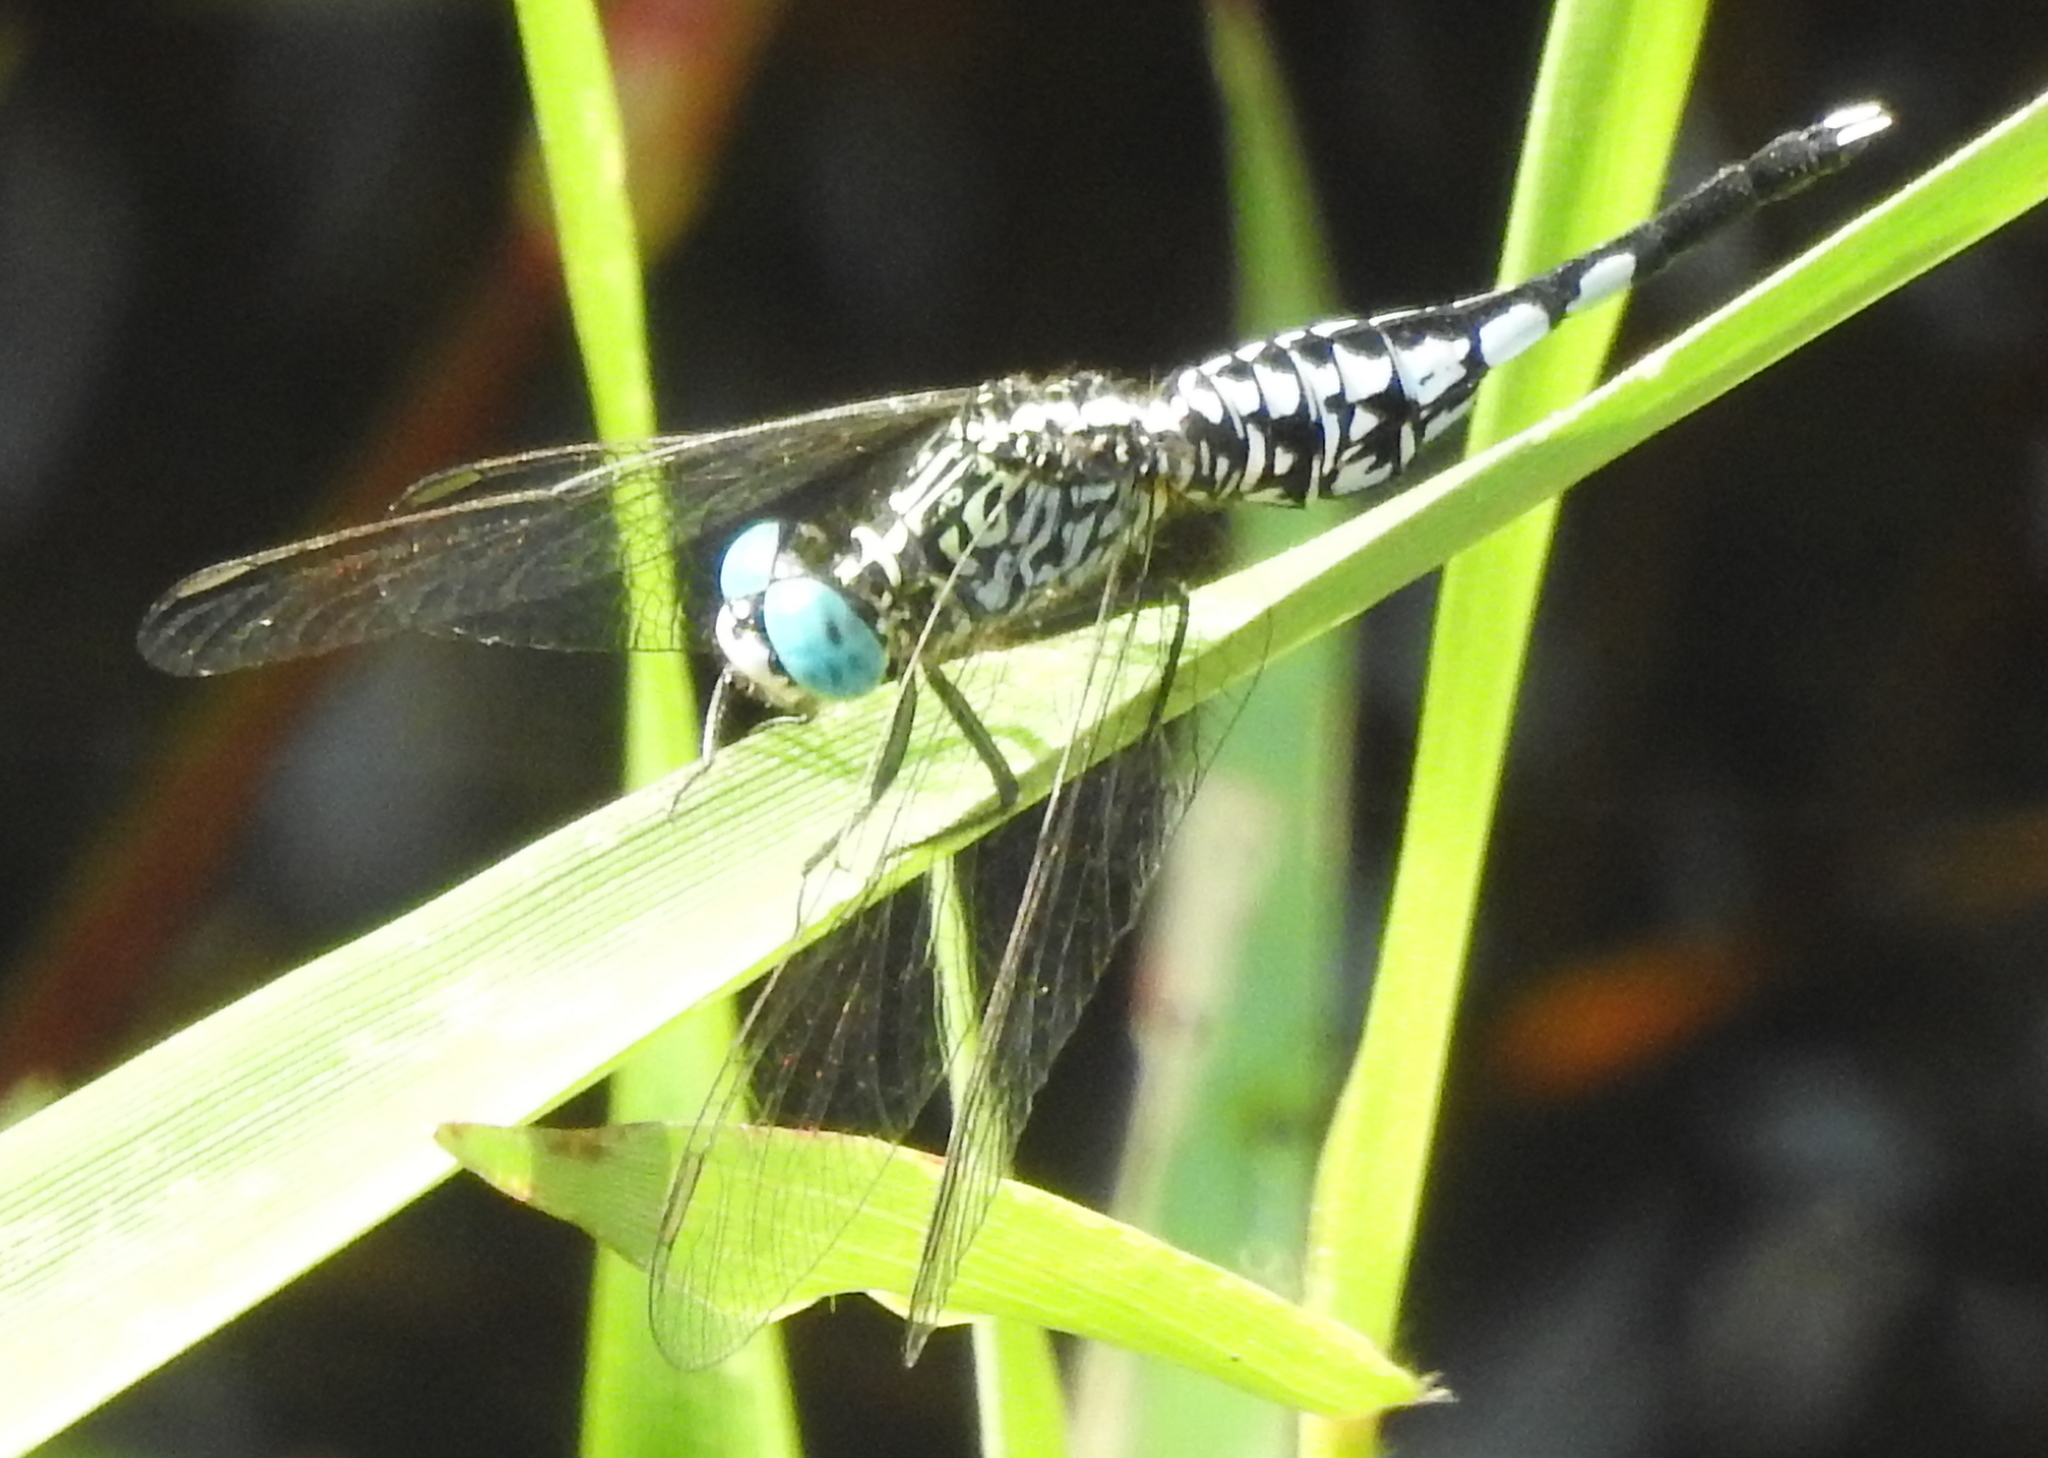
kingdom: Animalia
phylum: Arthropoda
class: Insecta
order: Odonata
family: Libellulidae
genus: Acisoma
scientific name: Acisoma panorpoides
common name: Asian pintail
